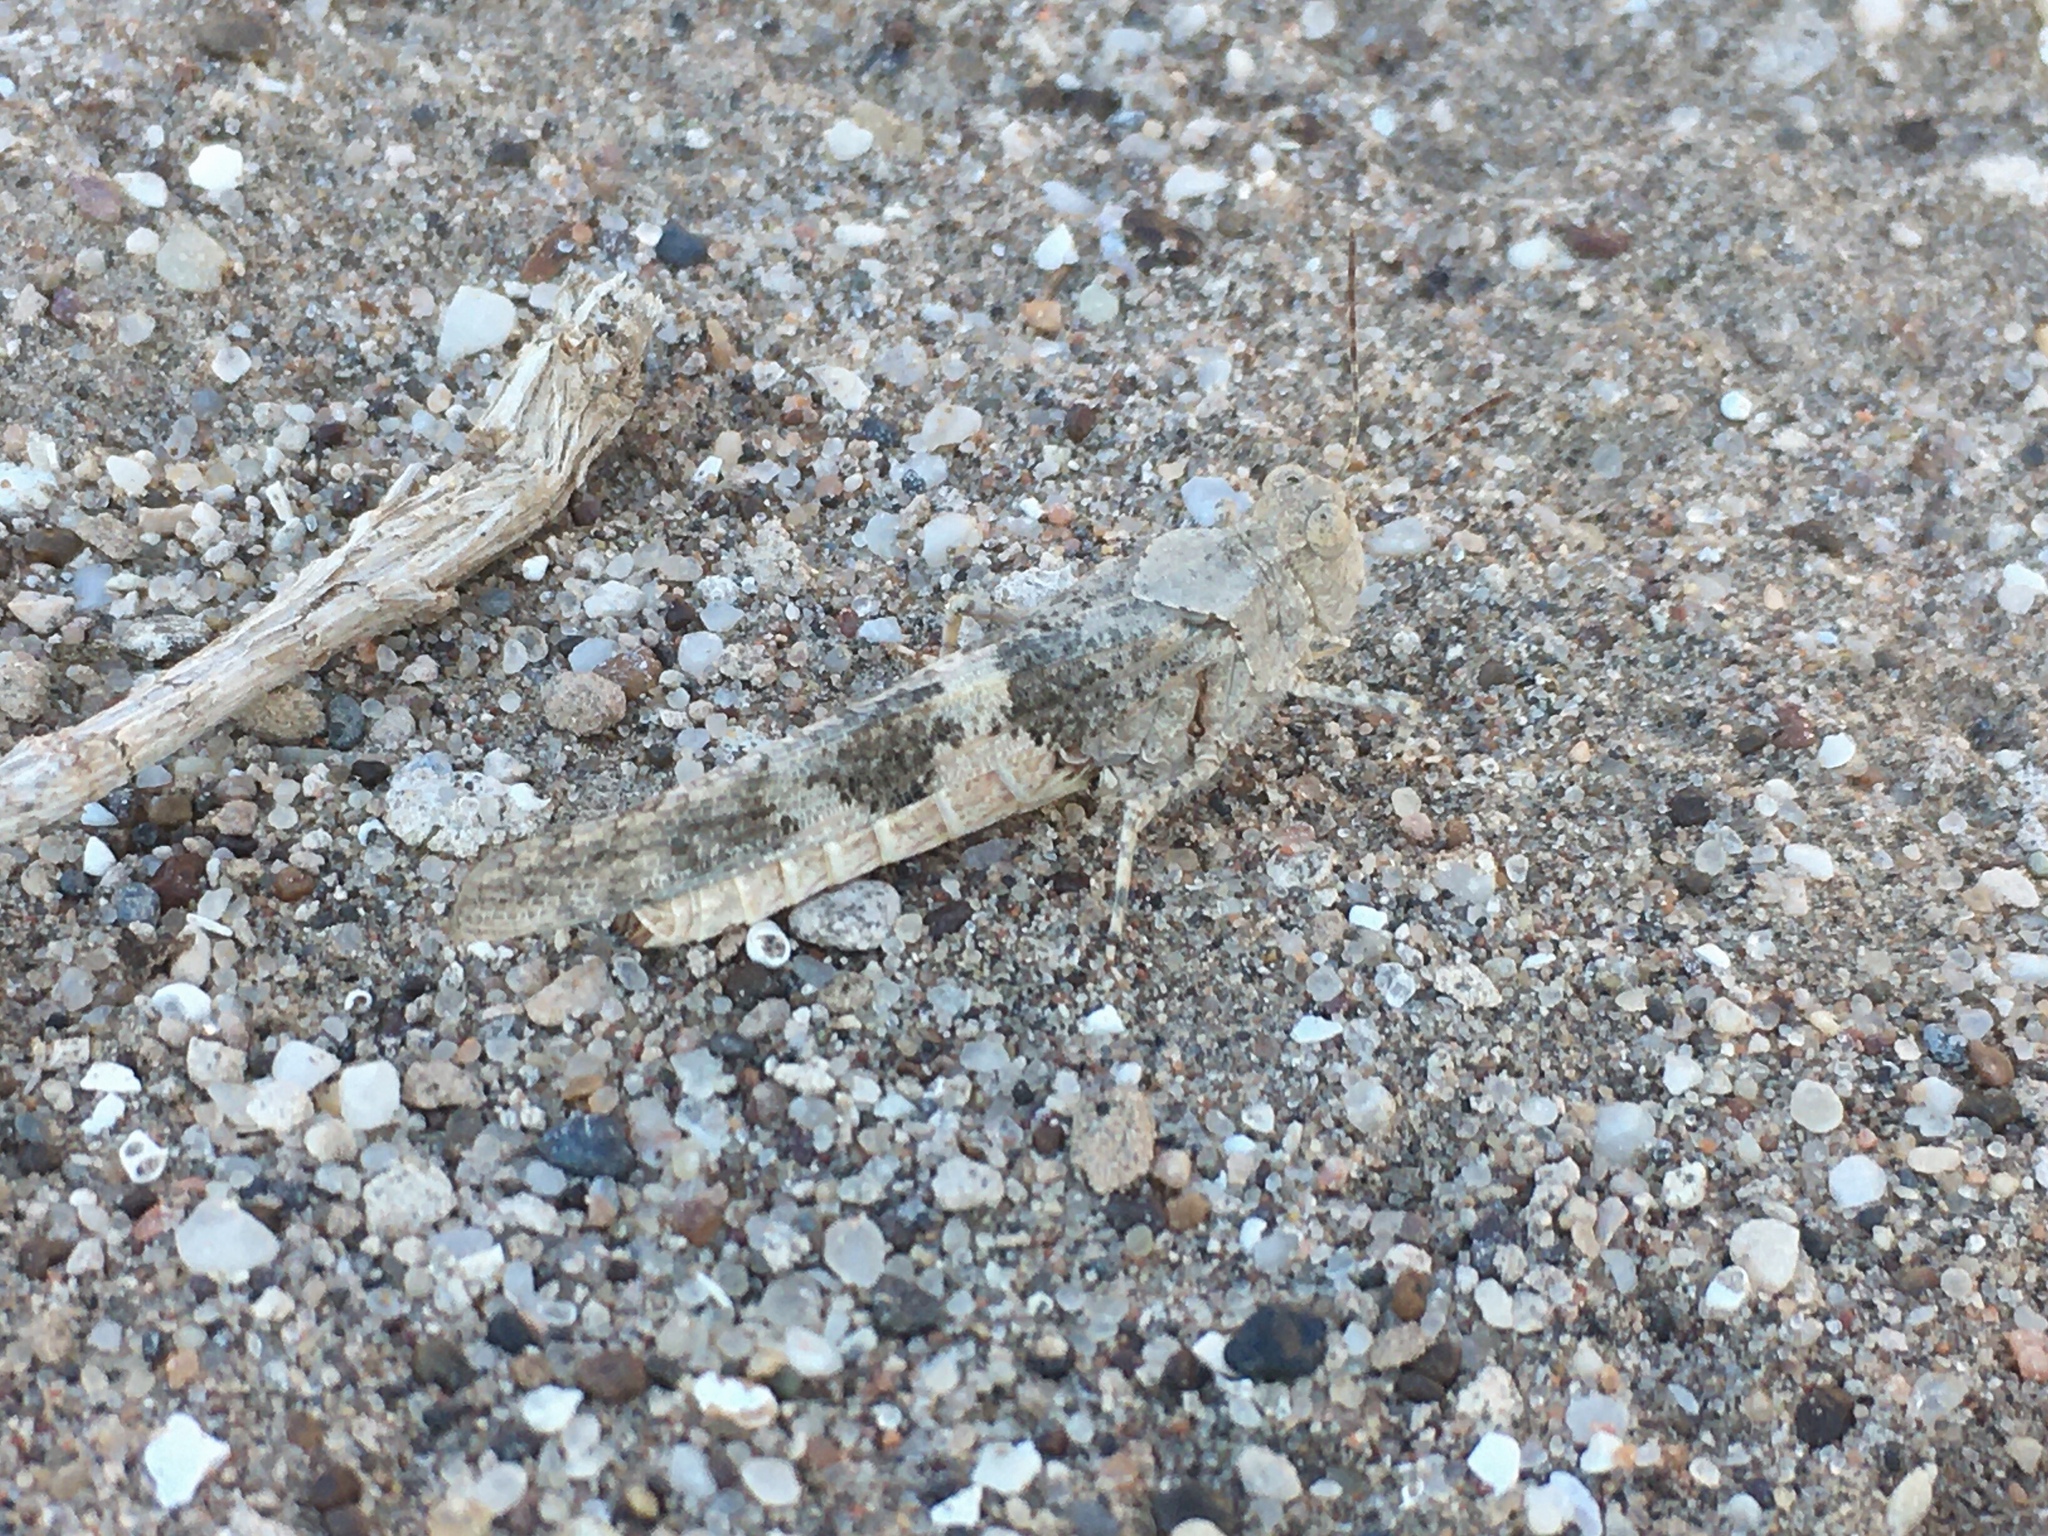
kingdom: Animalia
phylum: Arthropoda
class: Insecta
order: Orthoptera
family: Acrididae
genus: Trimerotropis
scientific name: Trimerotropis pallidipennis
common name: Pallid-winged grasshopper
